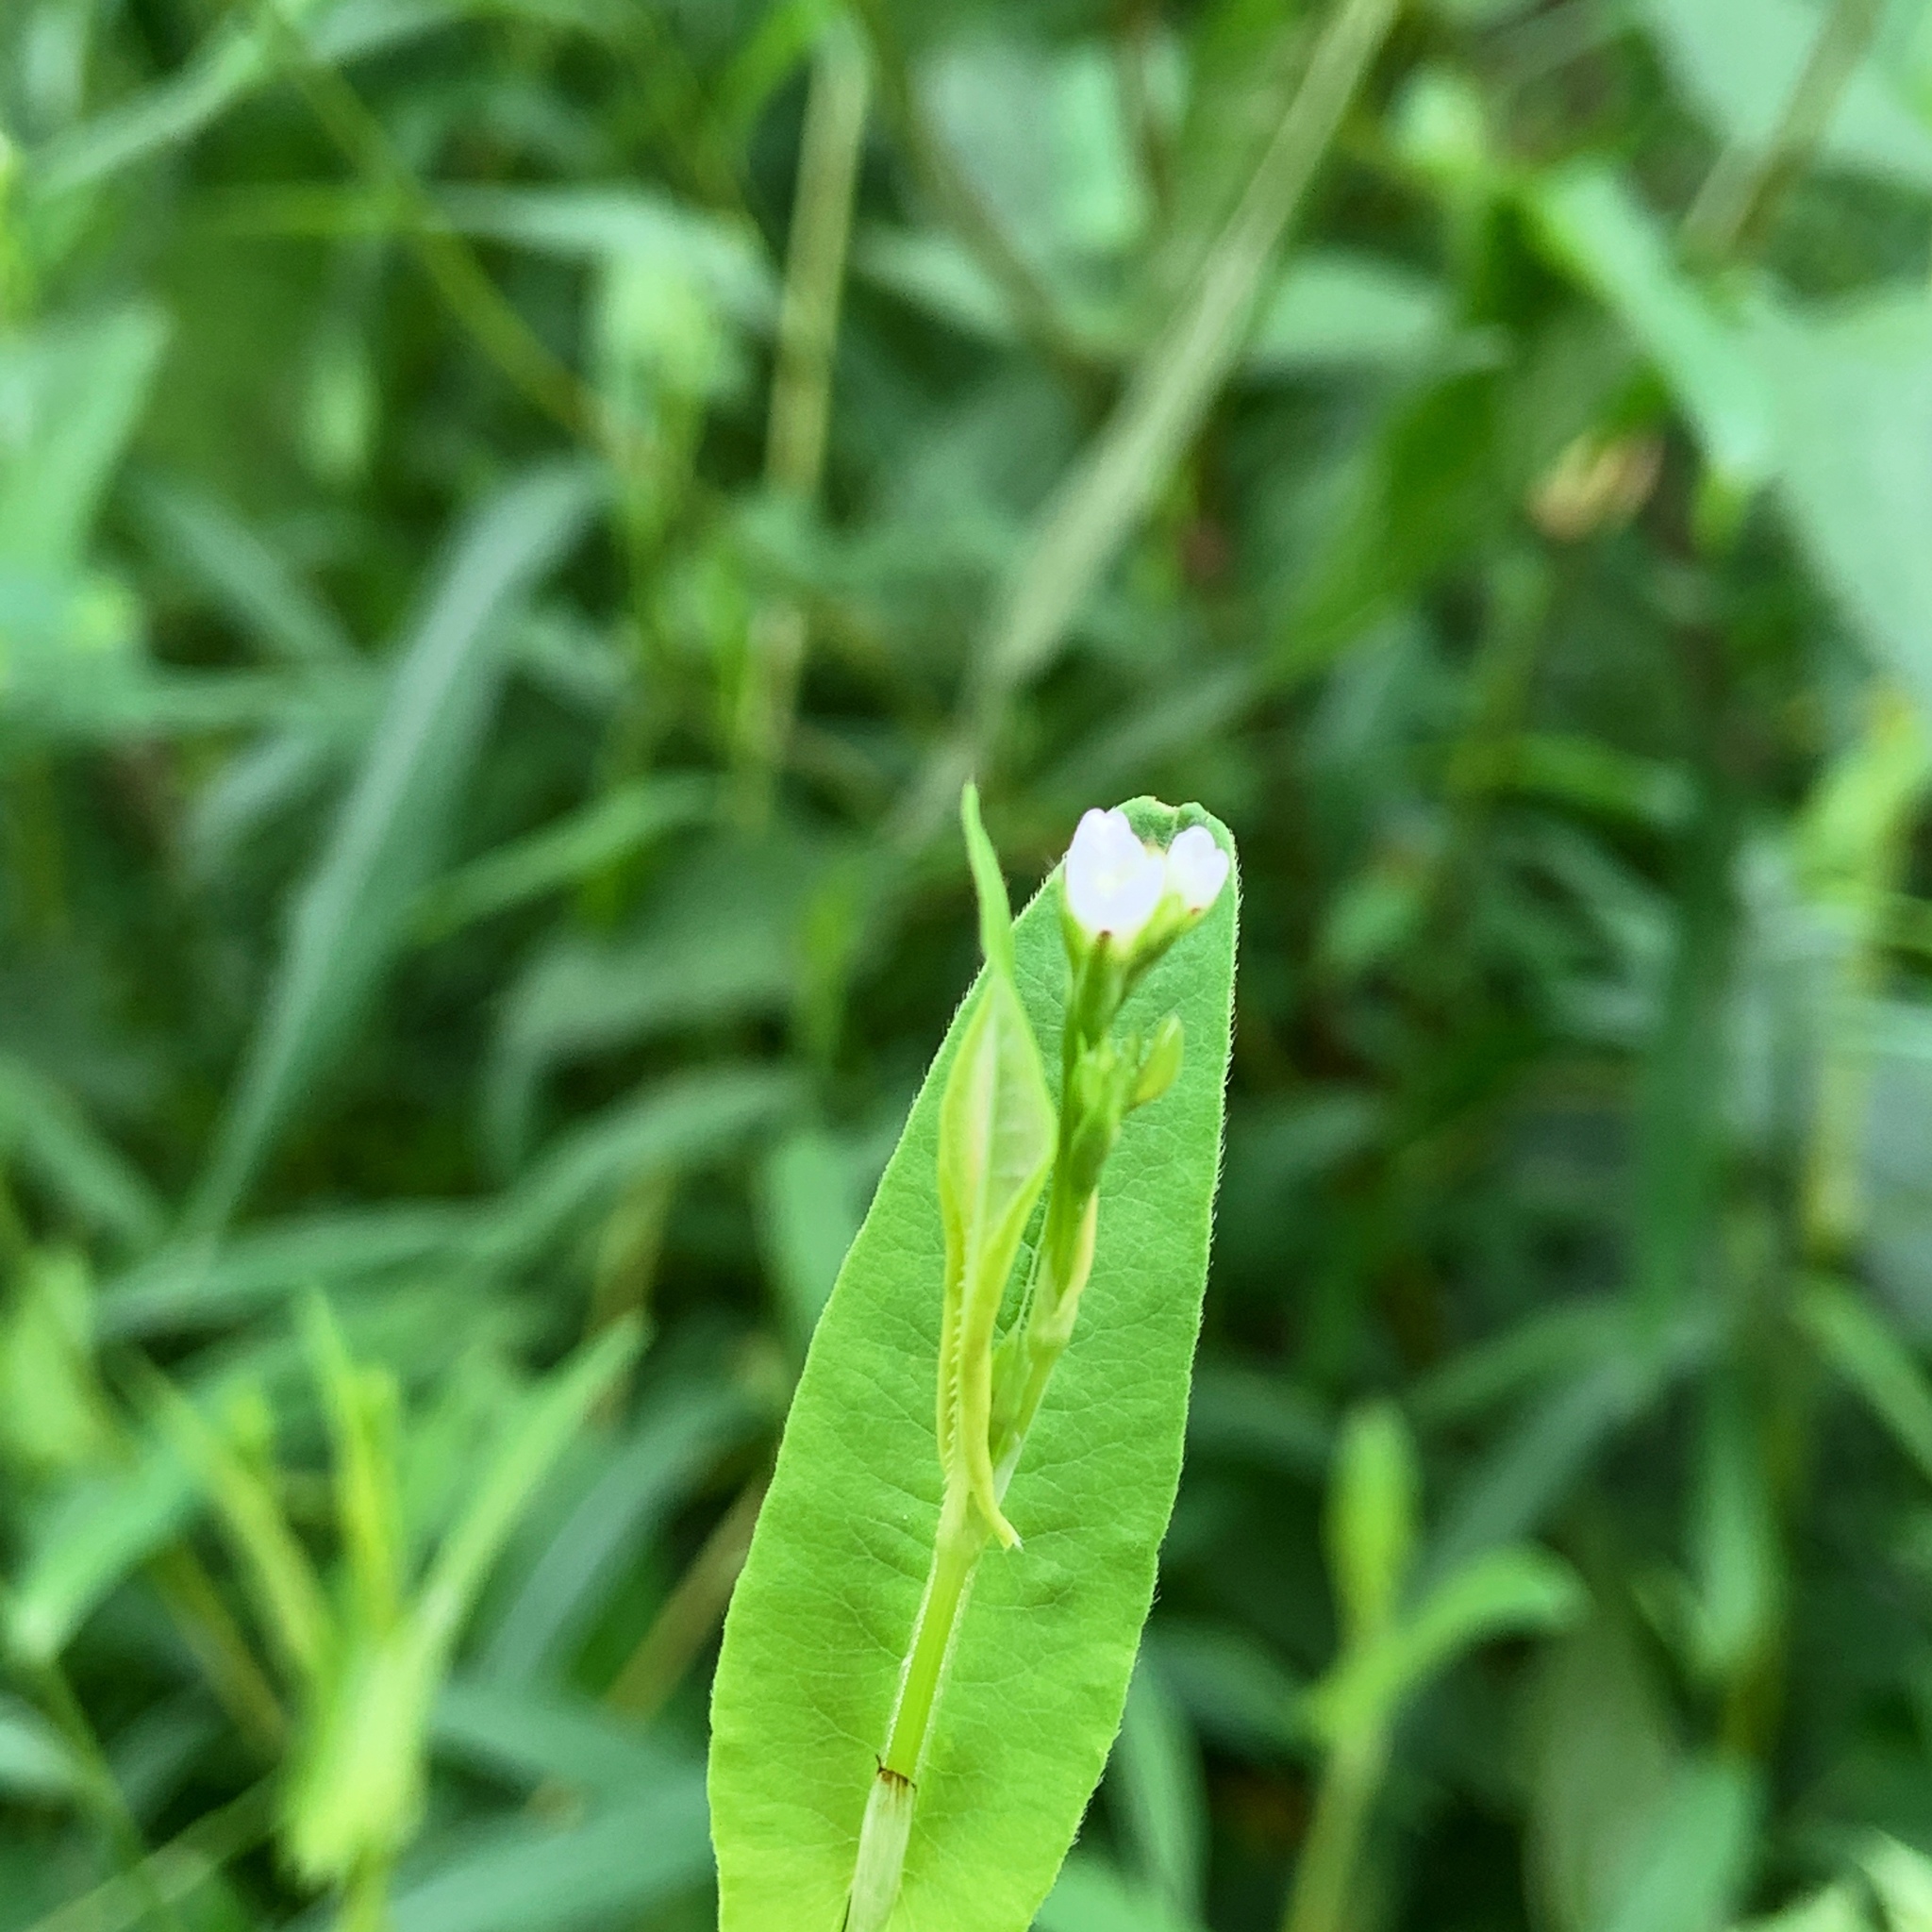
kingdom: Plantae
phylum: Tracheophyta
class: Magnoliopsida
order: Caryophyllales
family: Polygonaceae
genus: Persicaria
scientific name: Persicaria sagittata
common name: American tearthumb
